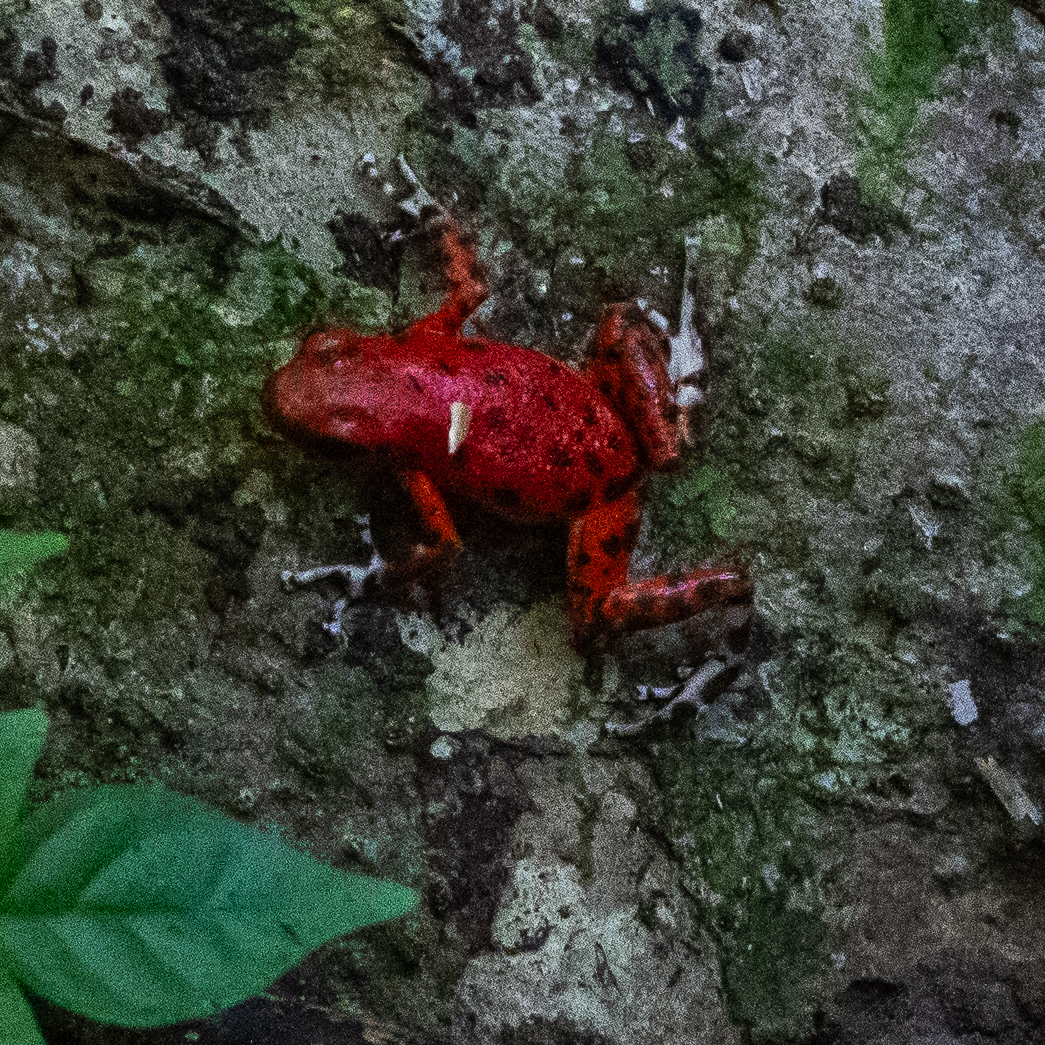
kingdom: Animalia
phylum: Chordata
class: Amphibia
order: Anura
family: Dendrobatidae
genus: Oophaga
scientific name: Oophaga pumilio
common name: Flaming poison frog
